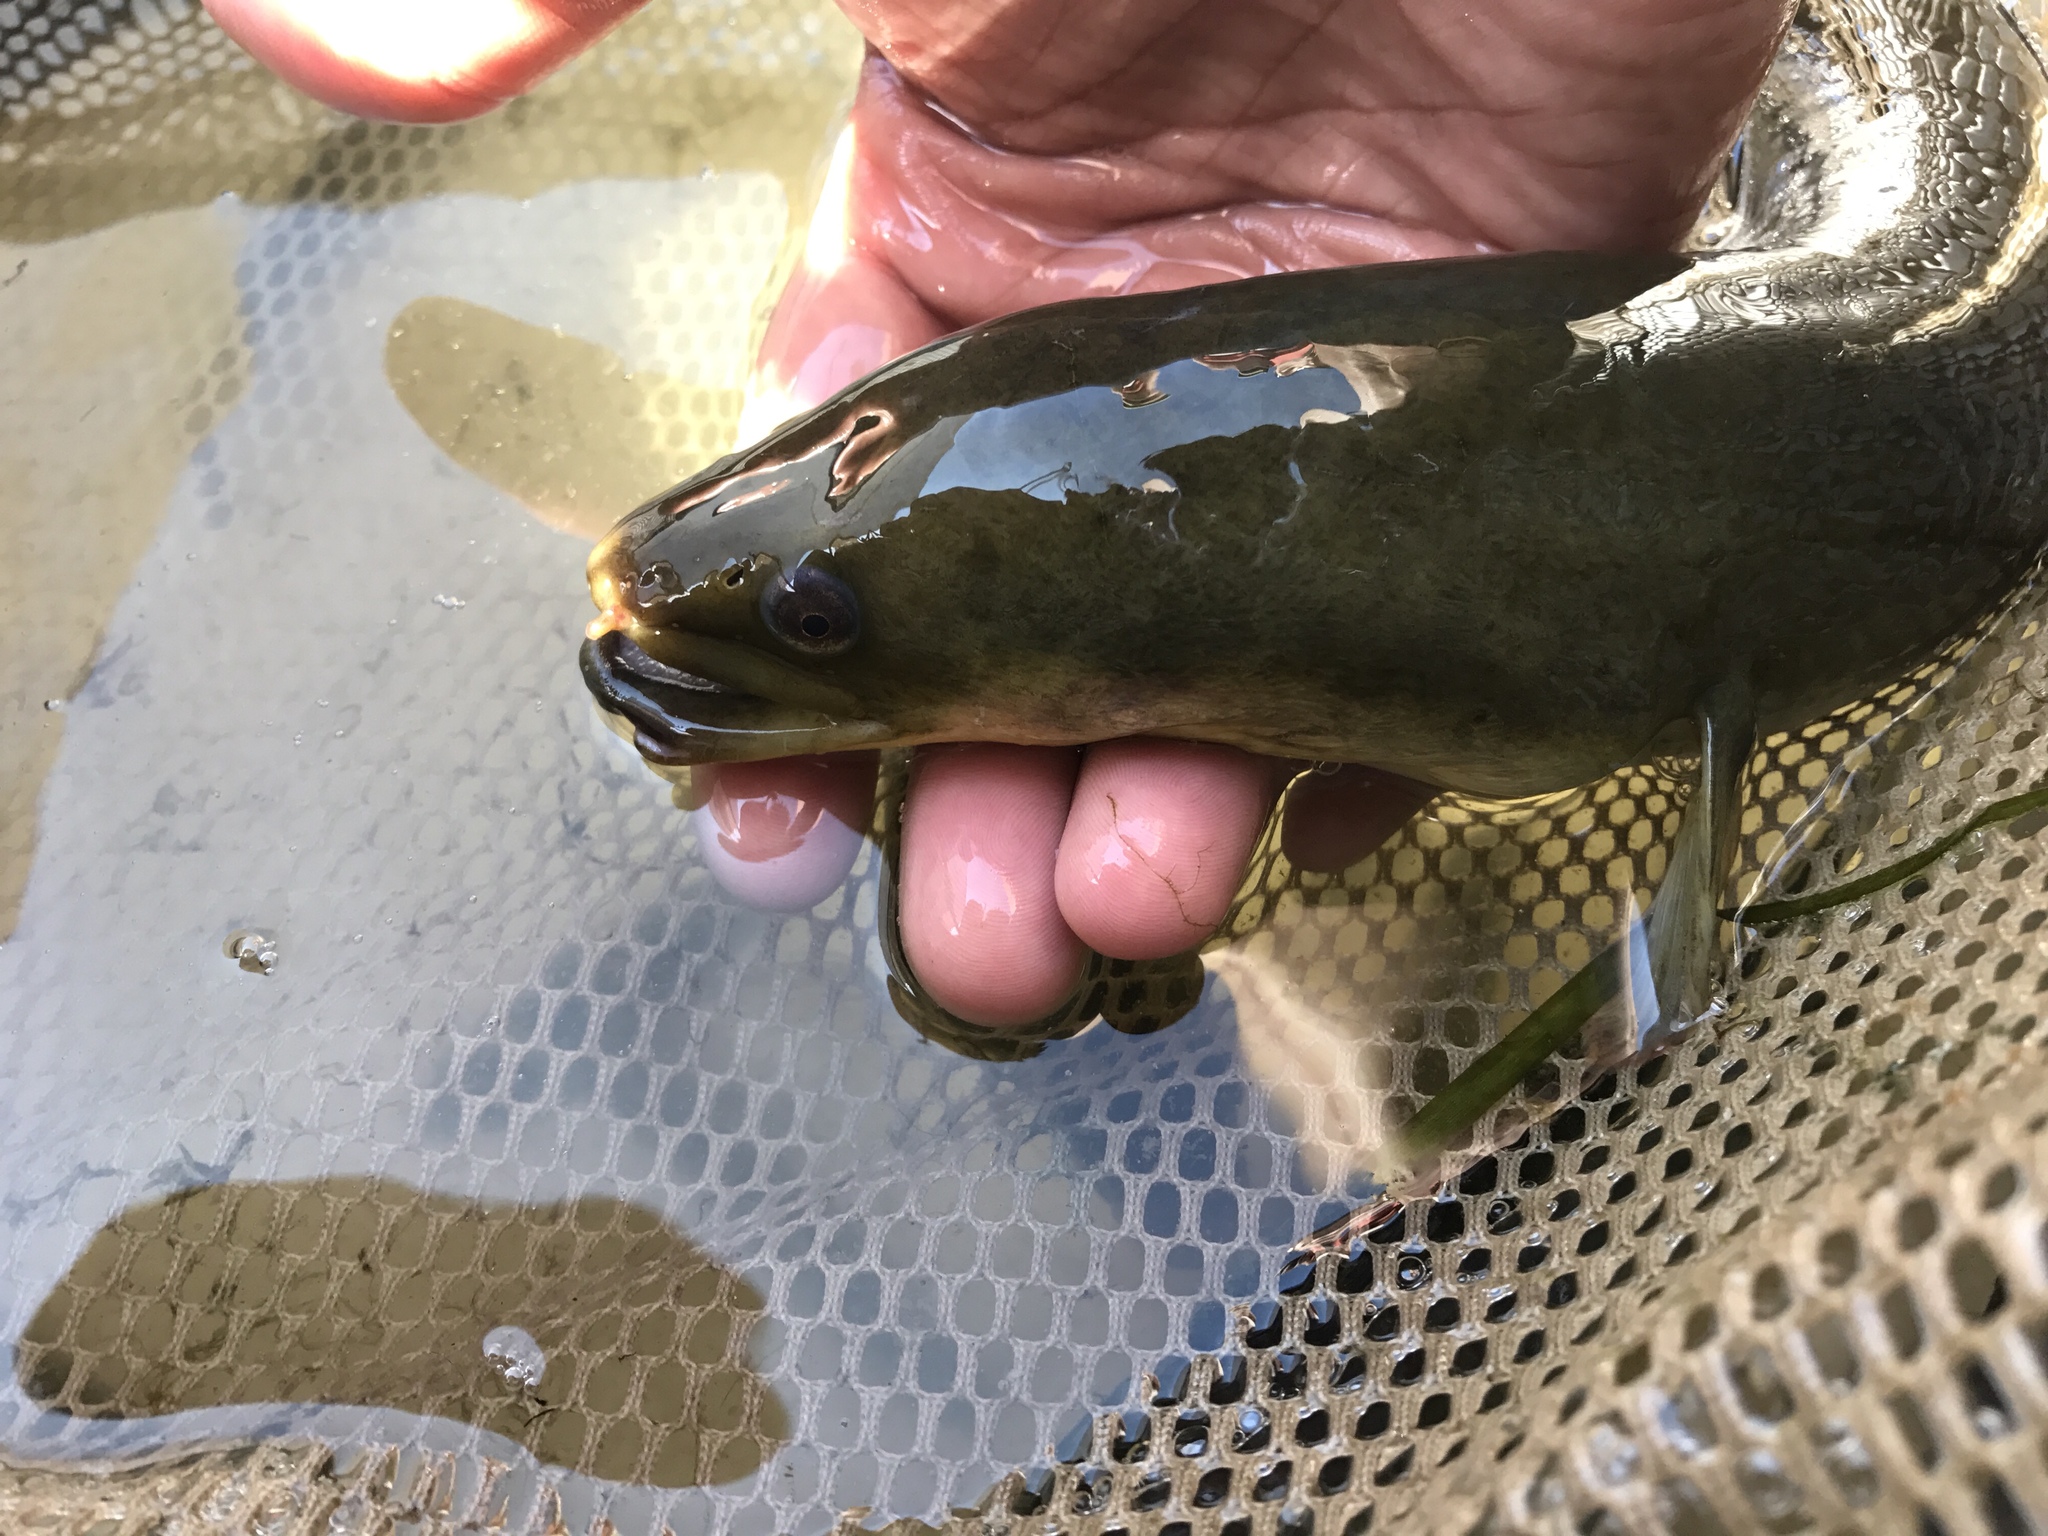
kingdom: Animalia
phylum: Chordata
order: Anguilliformes
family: Anguillidae
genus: Anguilla
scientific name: Anguilla rostrata
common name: American eel
